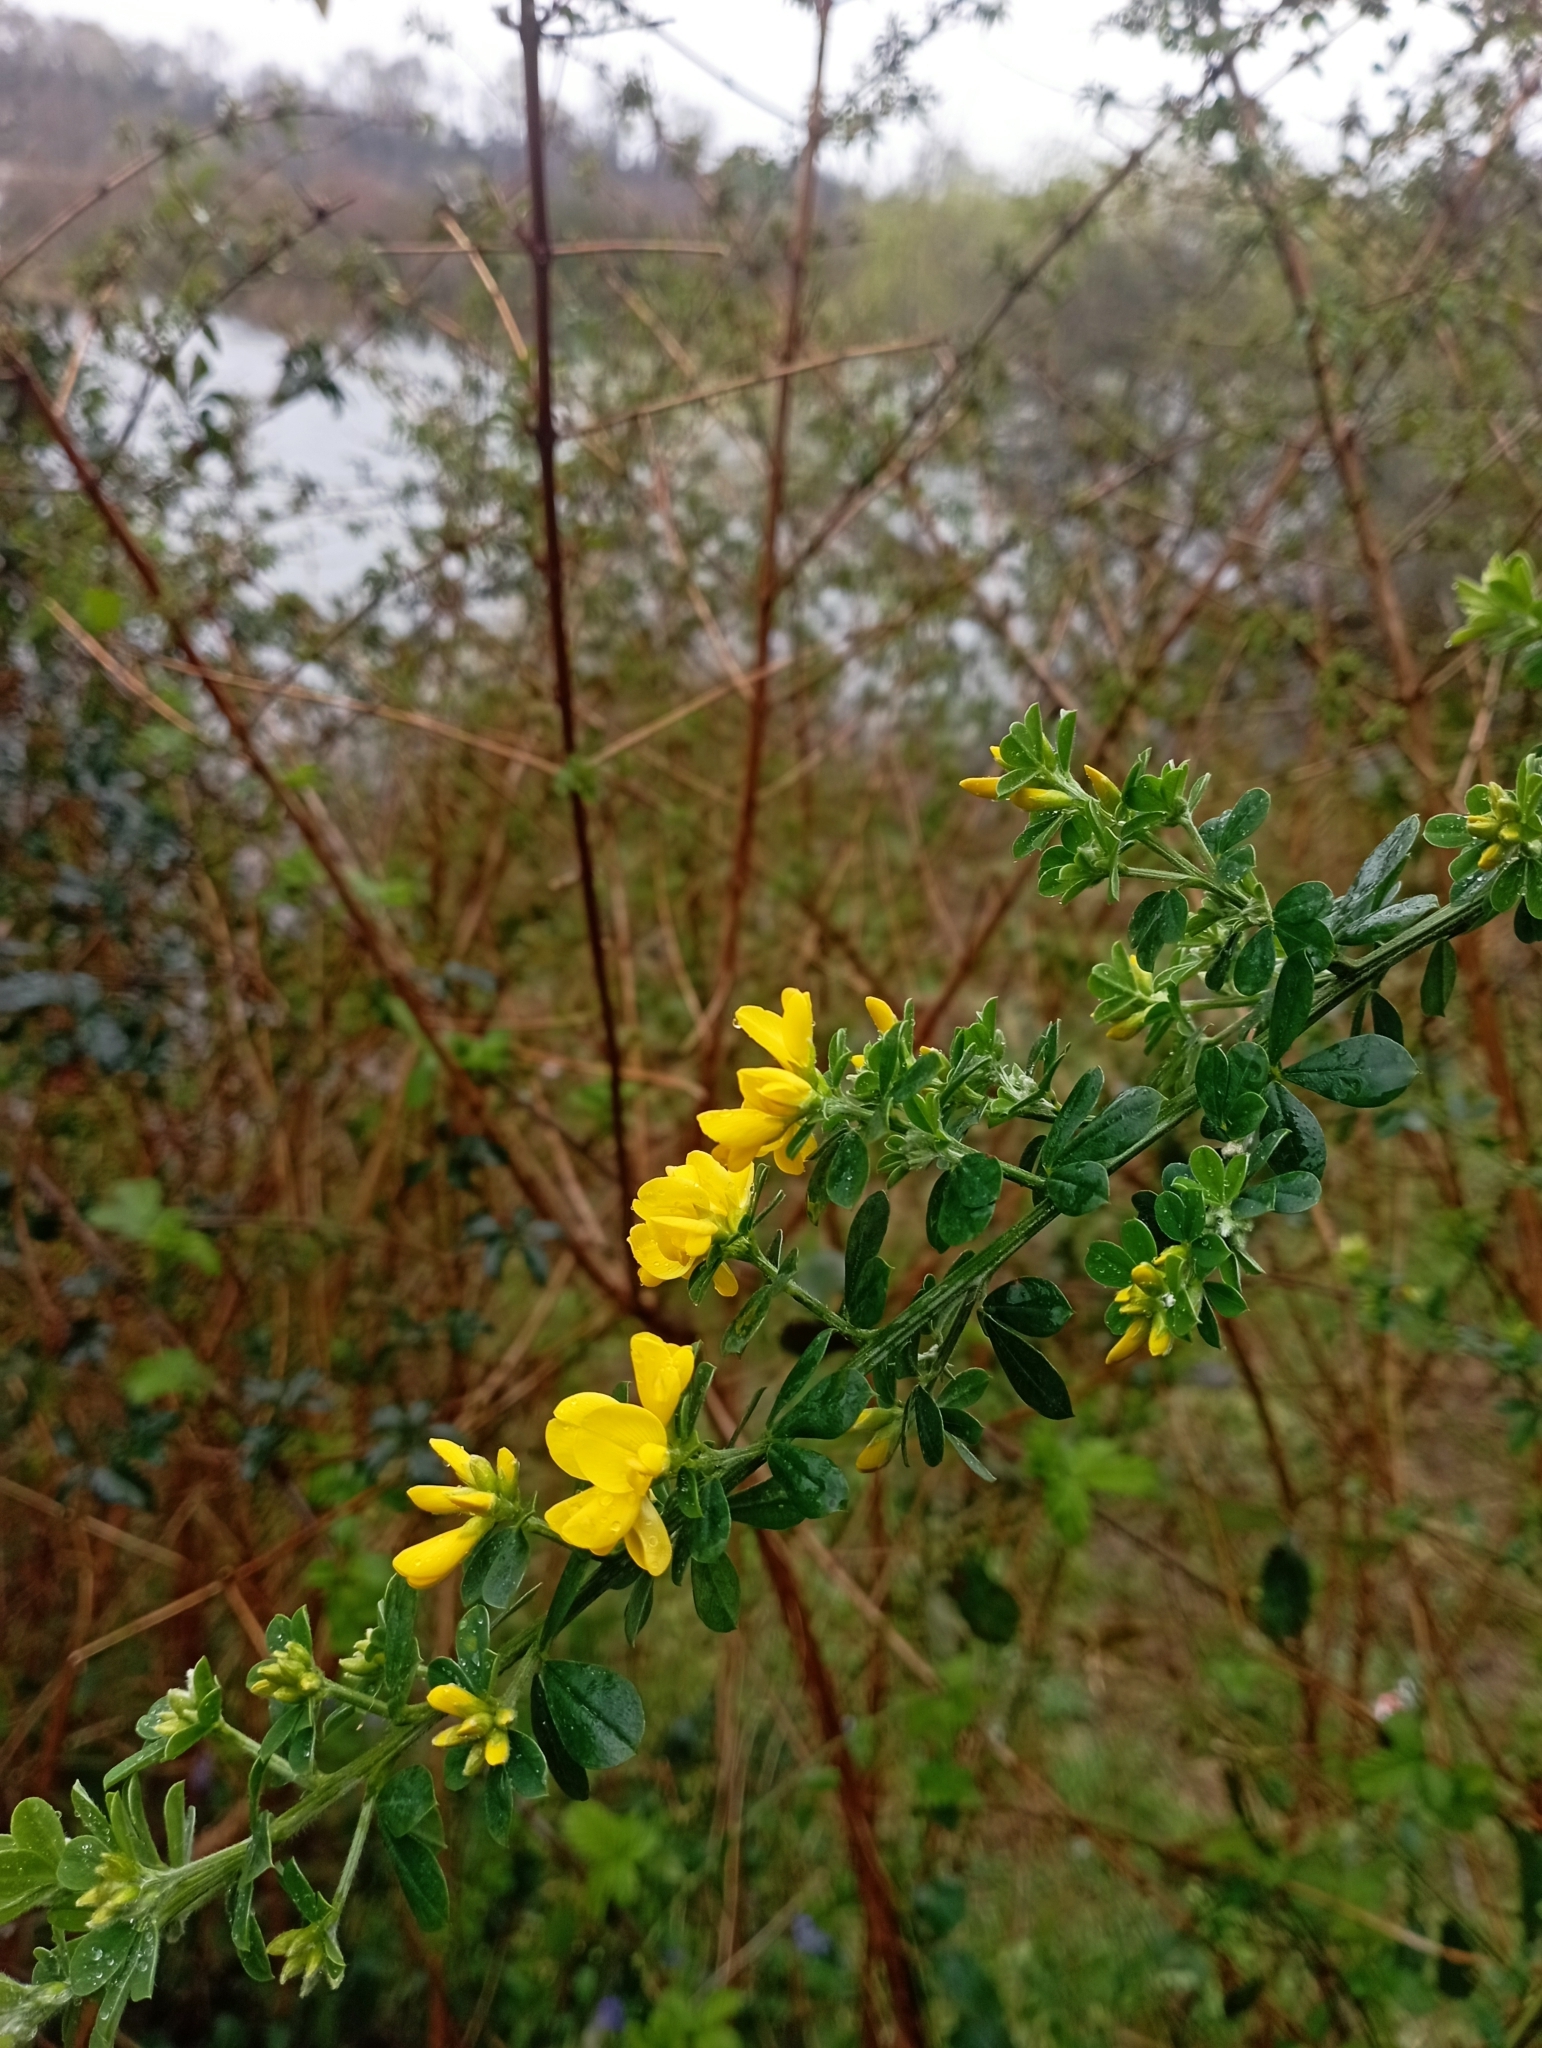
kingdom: Plantae
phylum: Tracheophyta
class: Magnoliopsida
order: Fabales
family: Fabaceae
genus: Genista
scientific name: Genista monspessulana
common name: Montpellier broom
